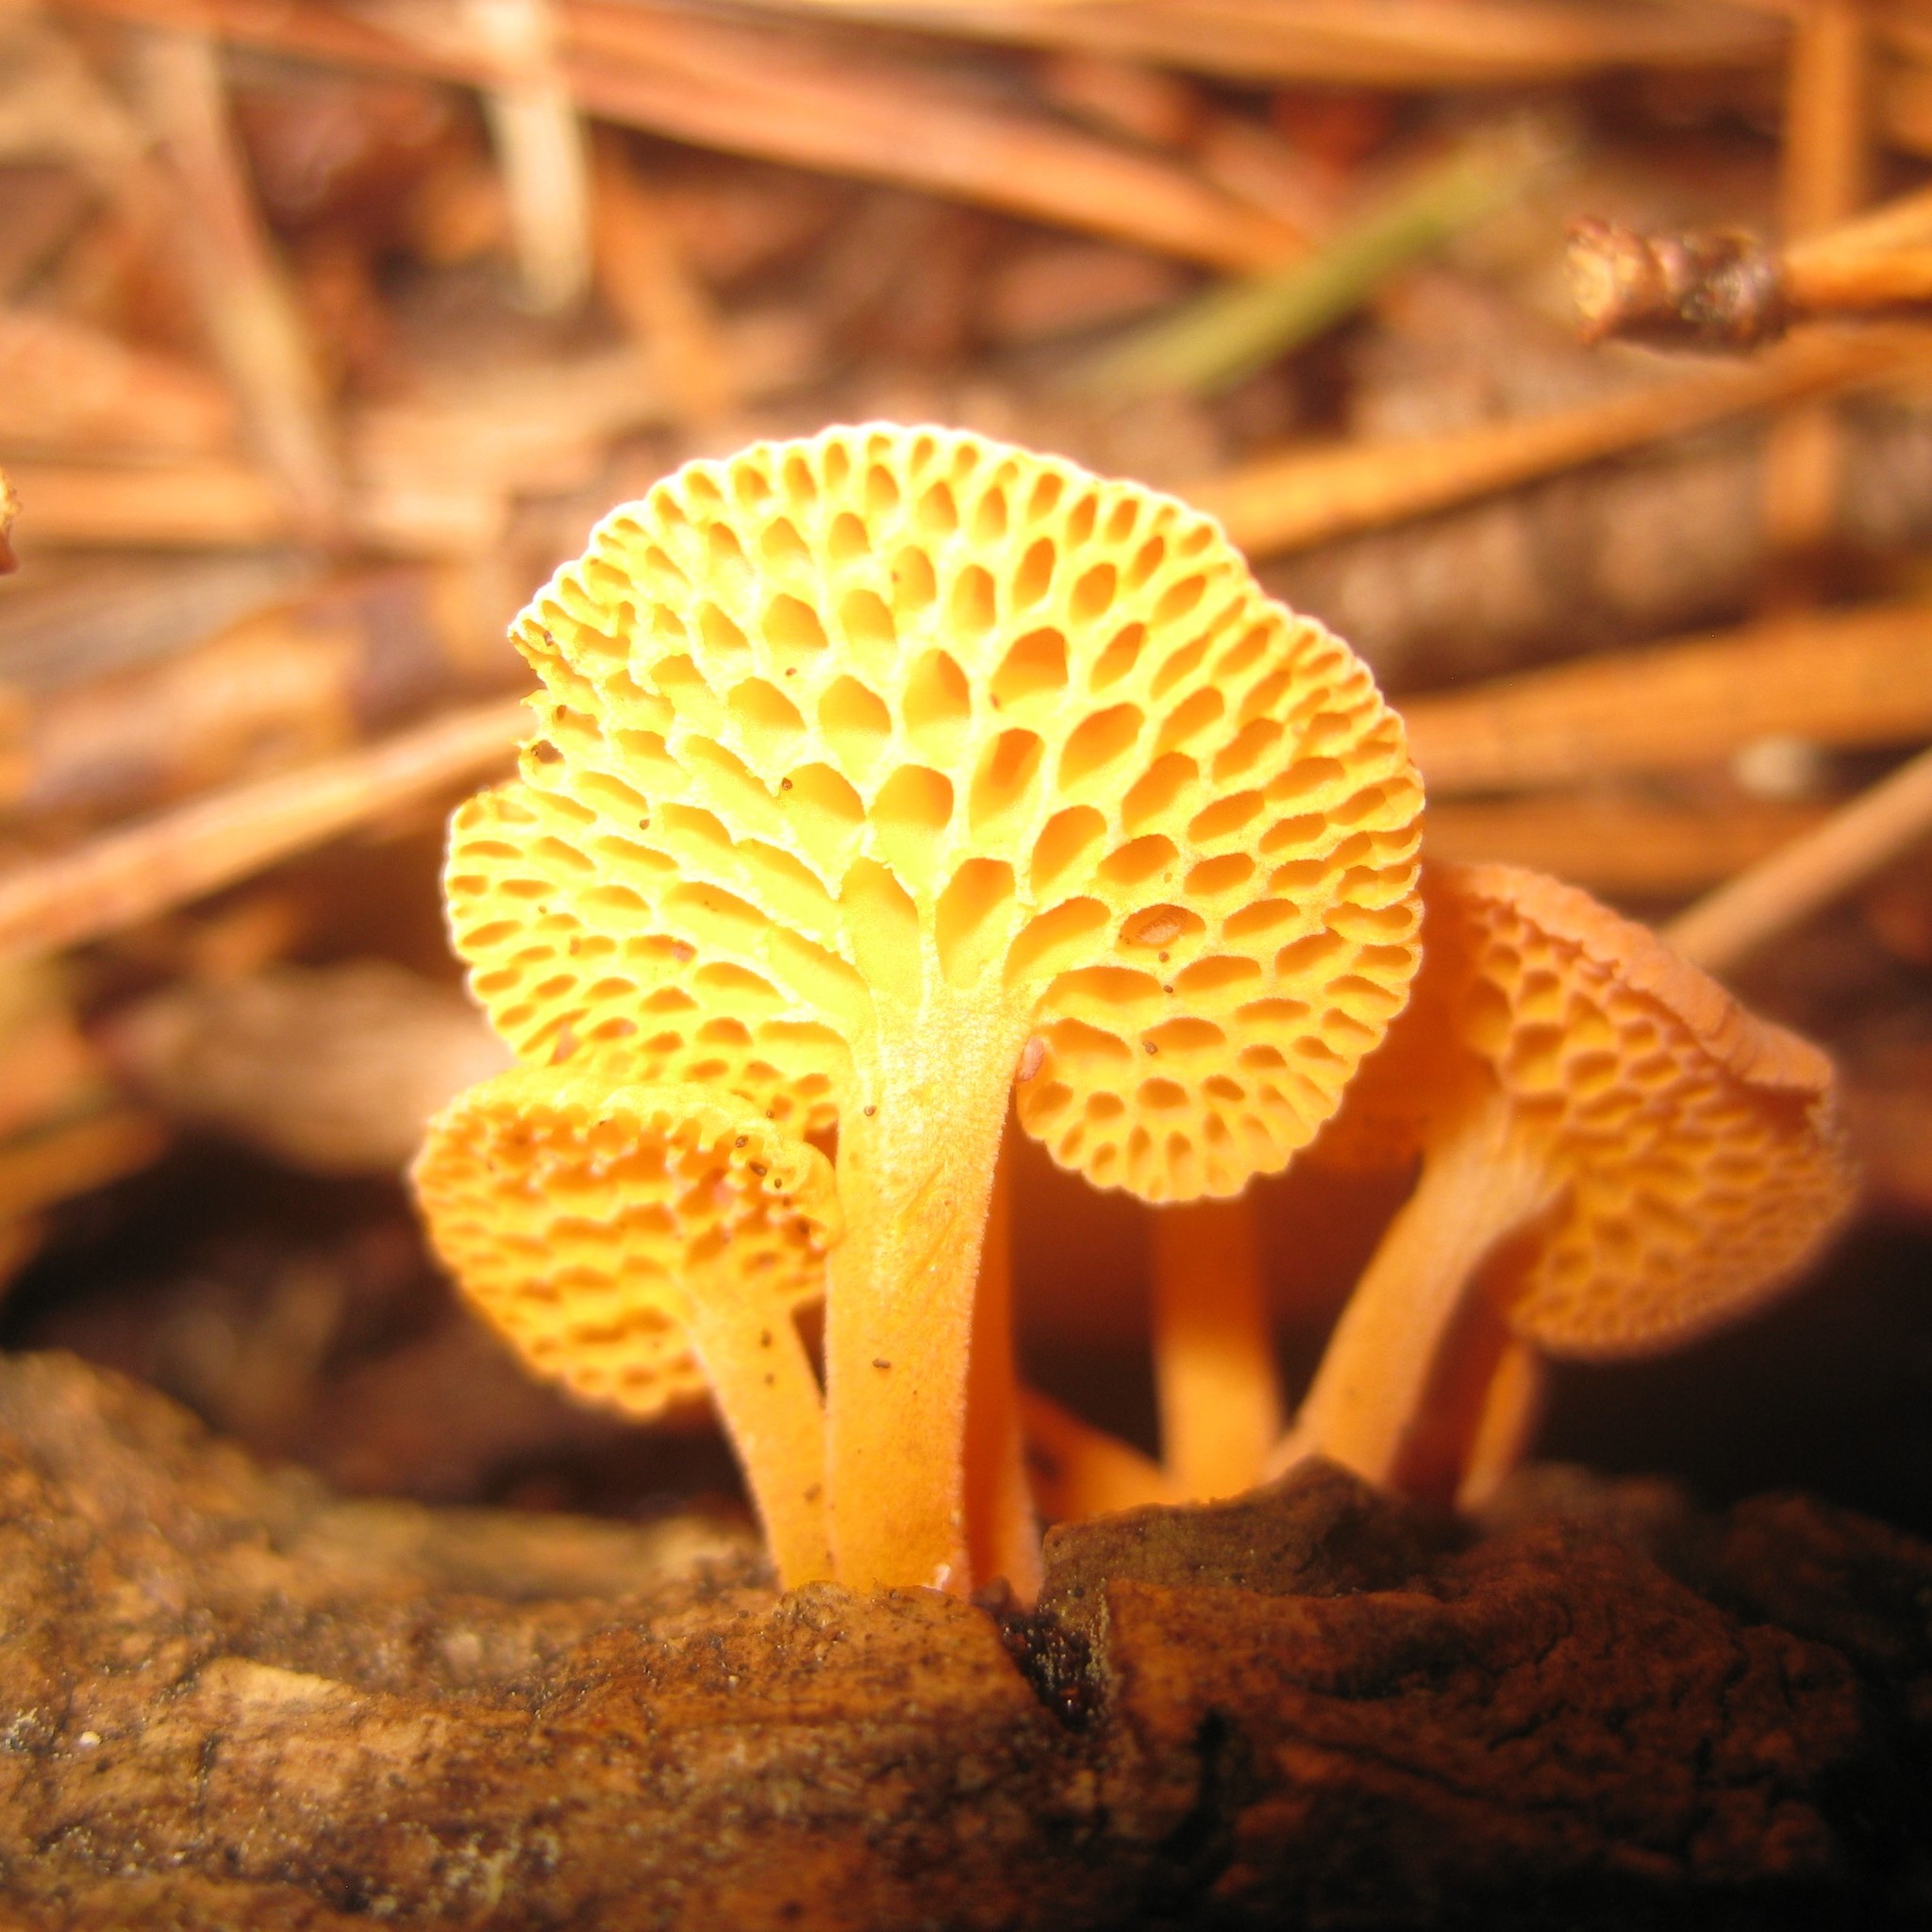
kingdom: Fungi
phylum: Basidiomycota
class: Agaricomycetes
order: Agaricales
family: Mycenaceae
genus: Favolaschia
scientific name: Favolaschia claudopus
